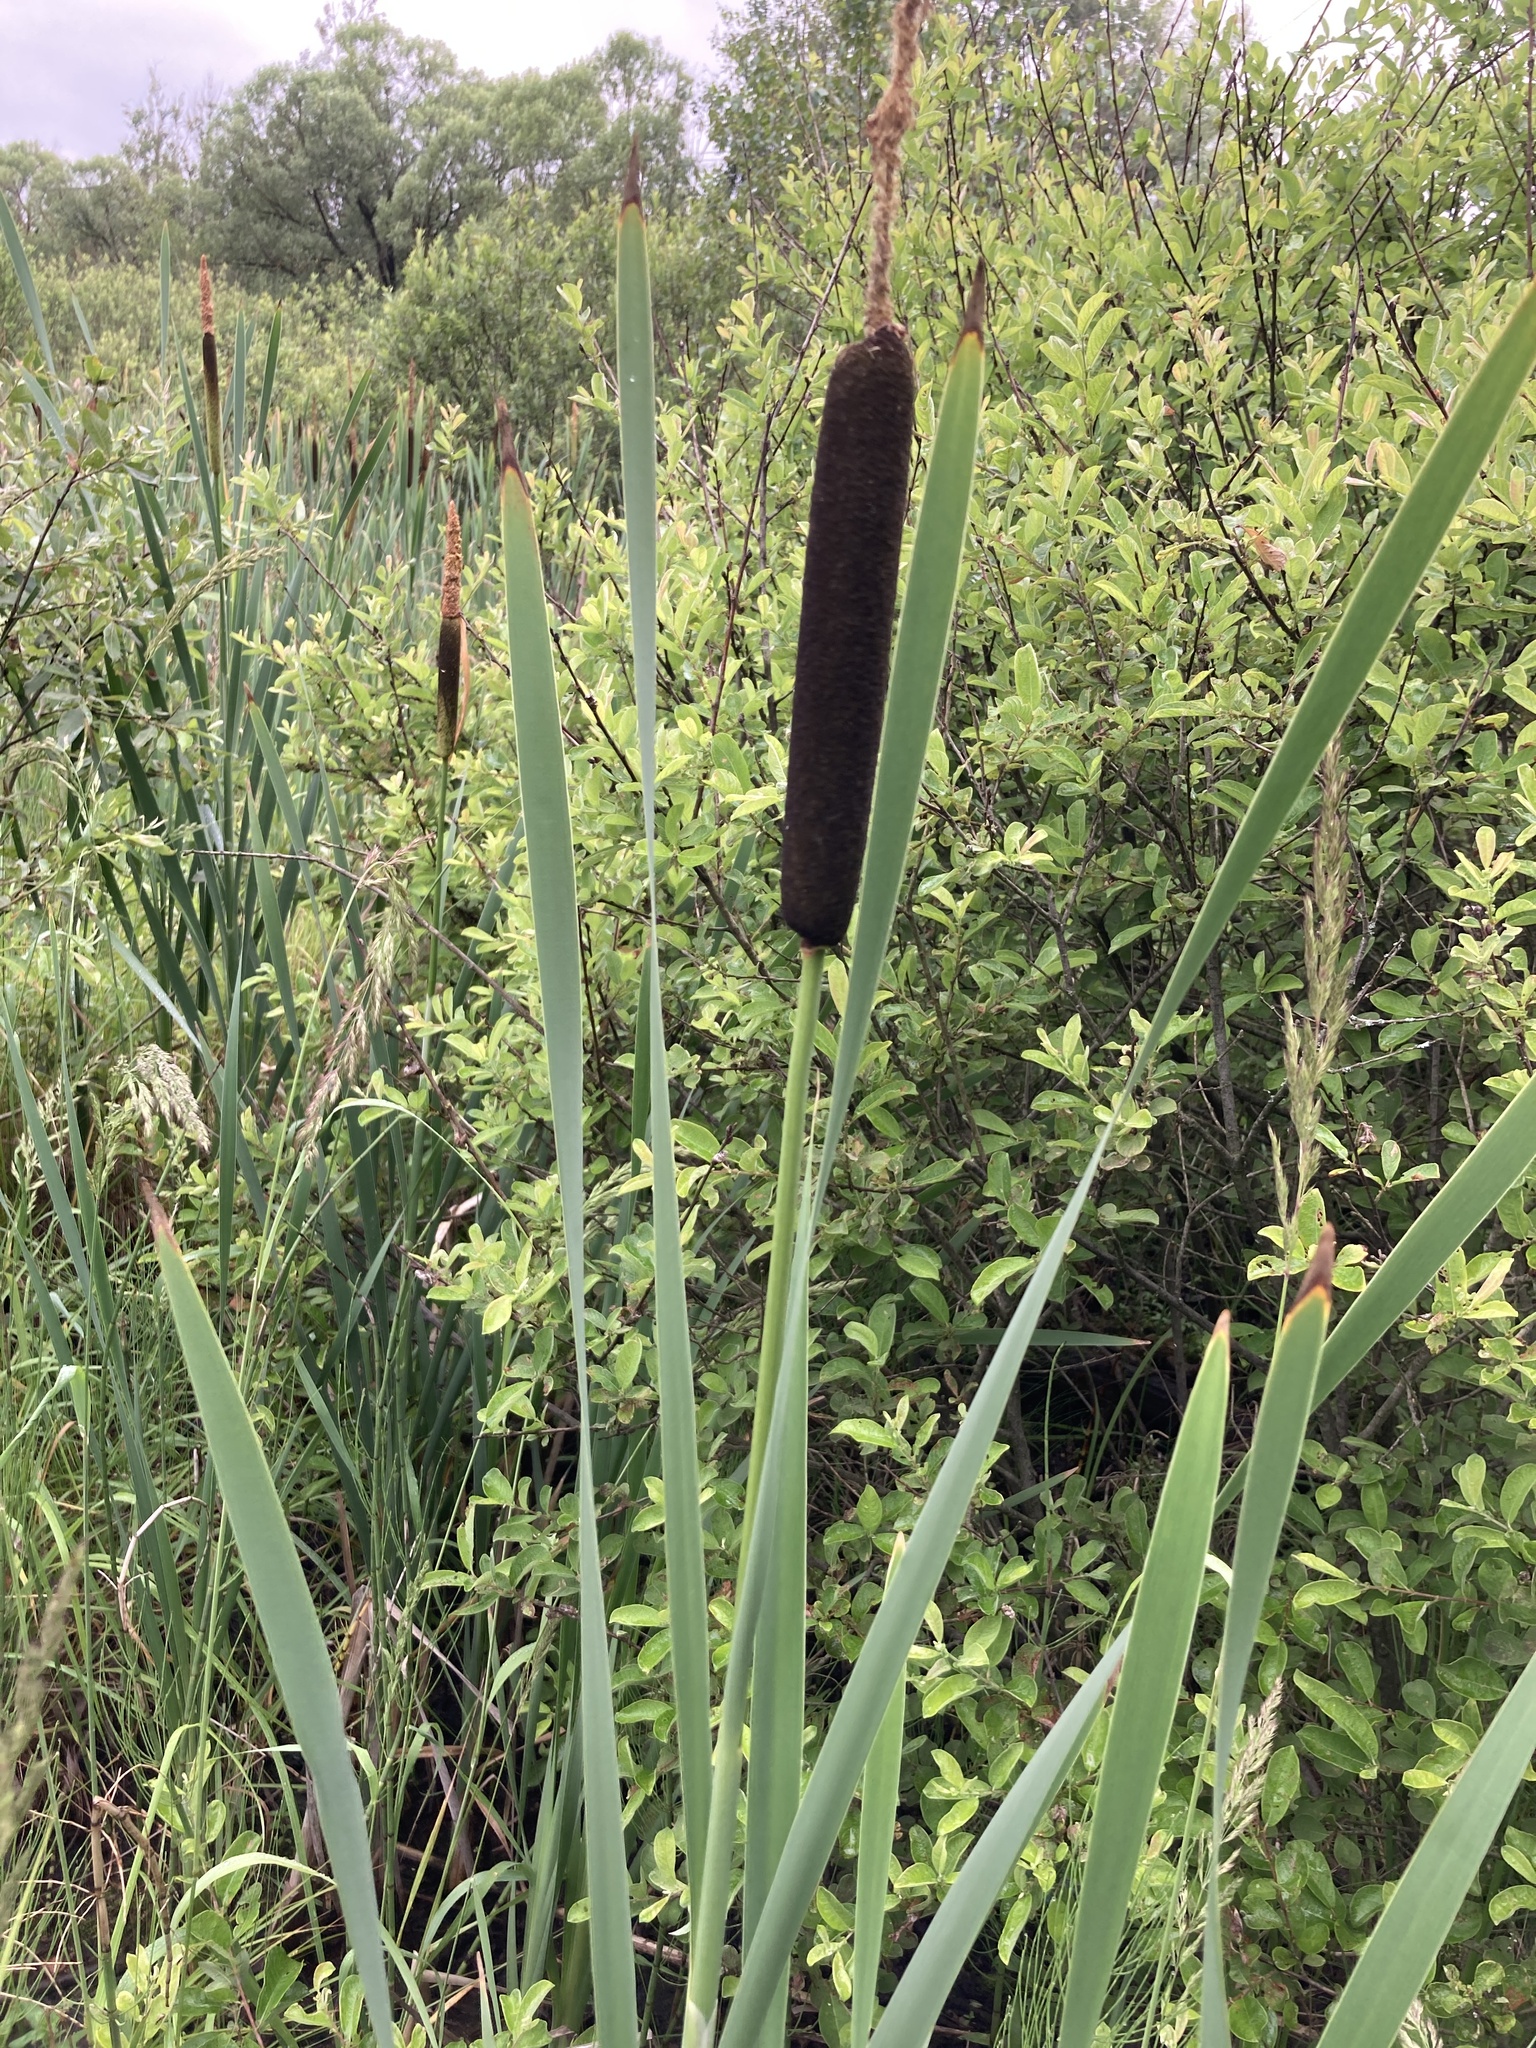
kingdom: Plantae
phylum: Tracheophyta
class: Liliopsida
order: Poales
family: Typhaceae
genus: Typha
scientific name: Typha latifolia
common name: Broadleaf cattail
